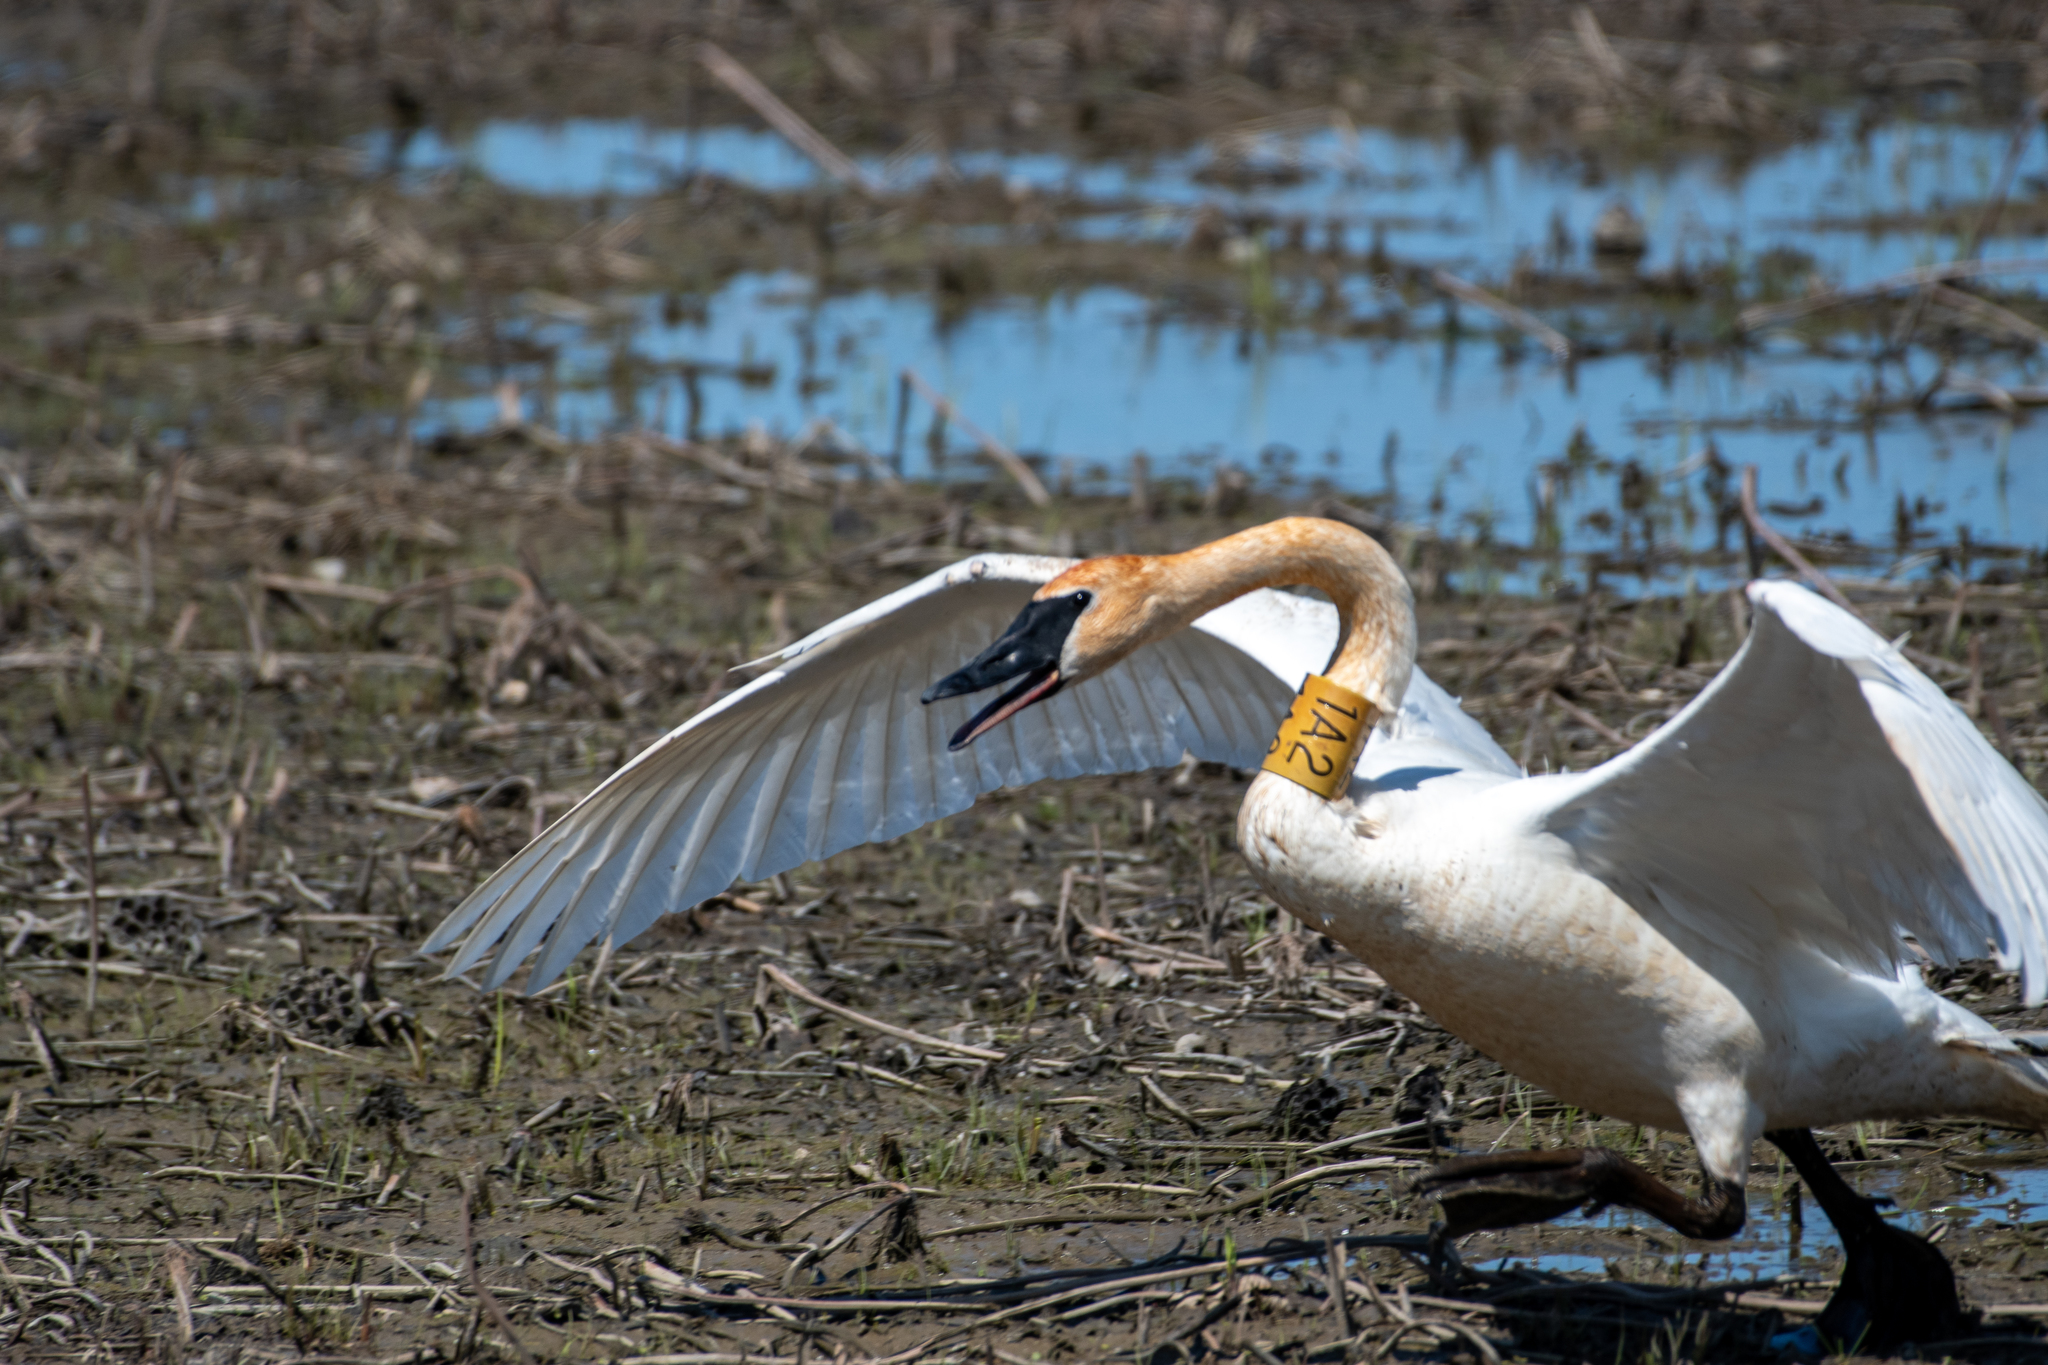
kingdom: Animalia
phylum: Chordata
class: Aves
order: Anseriformes
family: Anatidae
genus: Cygnus
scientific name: Cygnus buccinator
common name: Trumpeter swan
